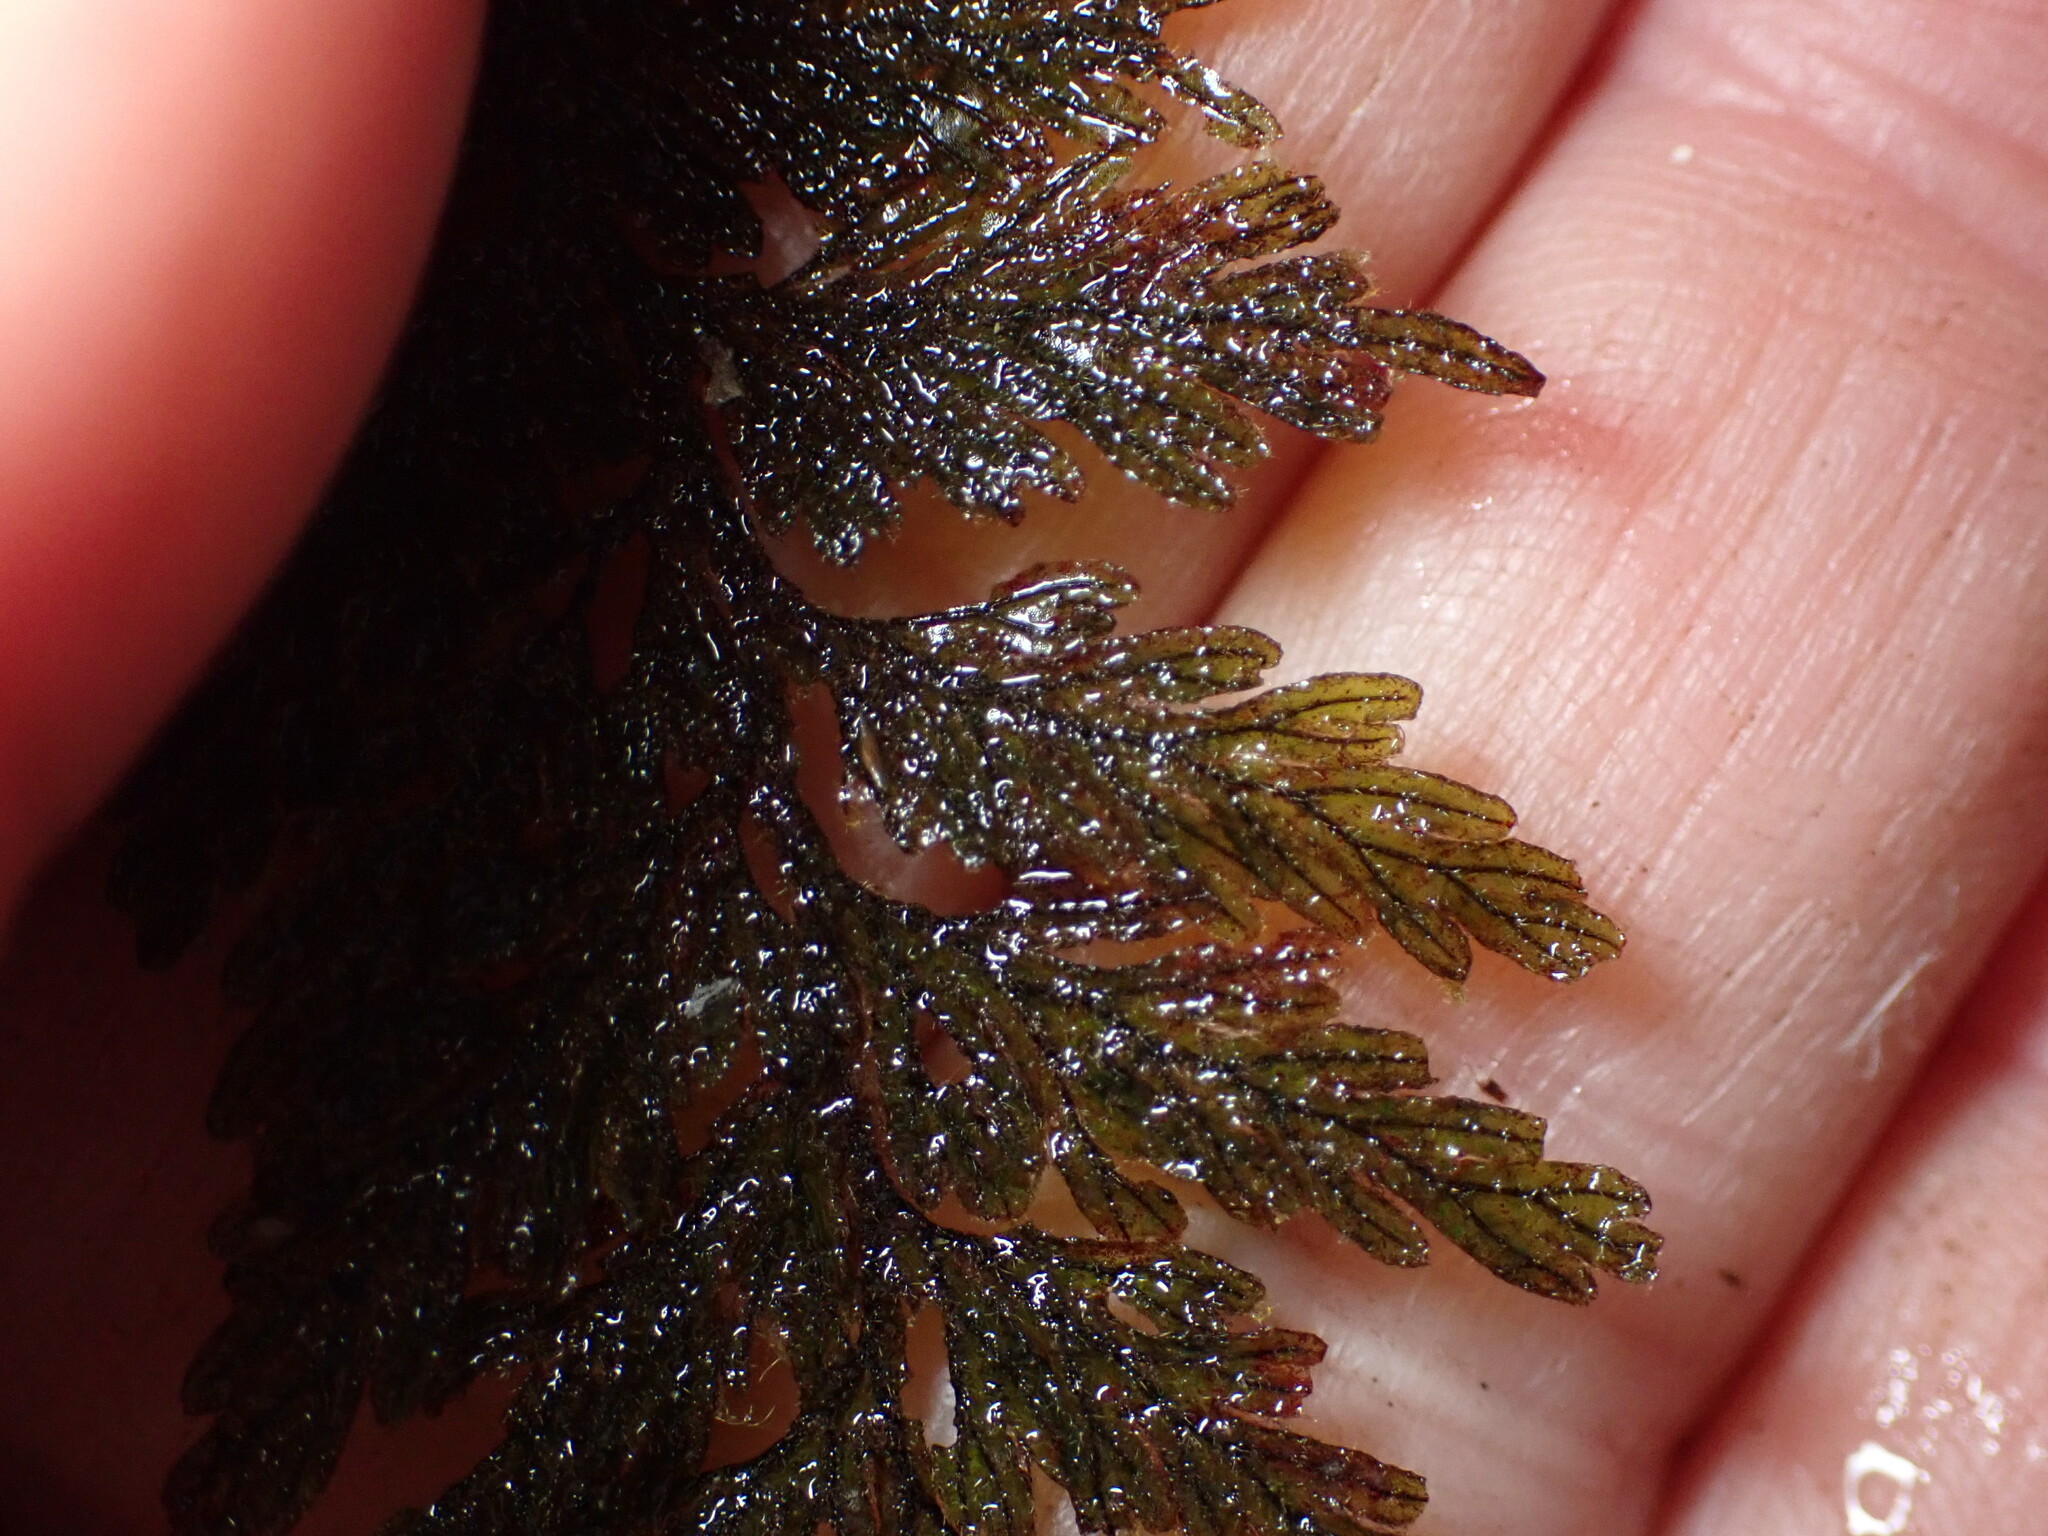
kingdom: Plantae
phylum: Tracheophyta
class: Polypodiopsida
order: Hymenophyllales
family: Hymenophyllaceae
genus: Hymenophyllum
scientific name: Hymenophyllum frankliniae
